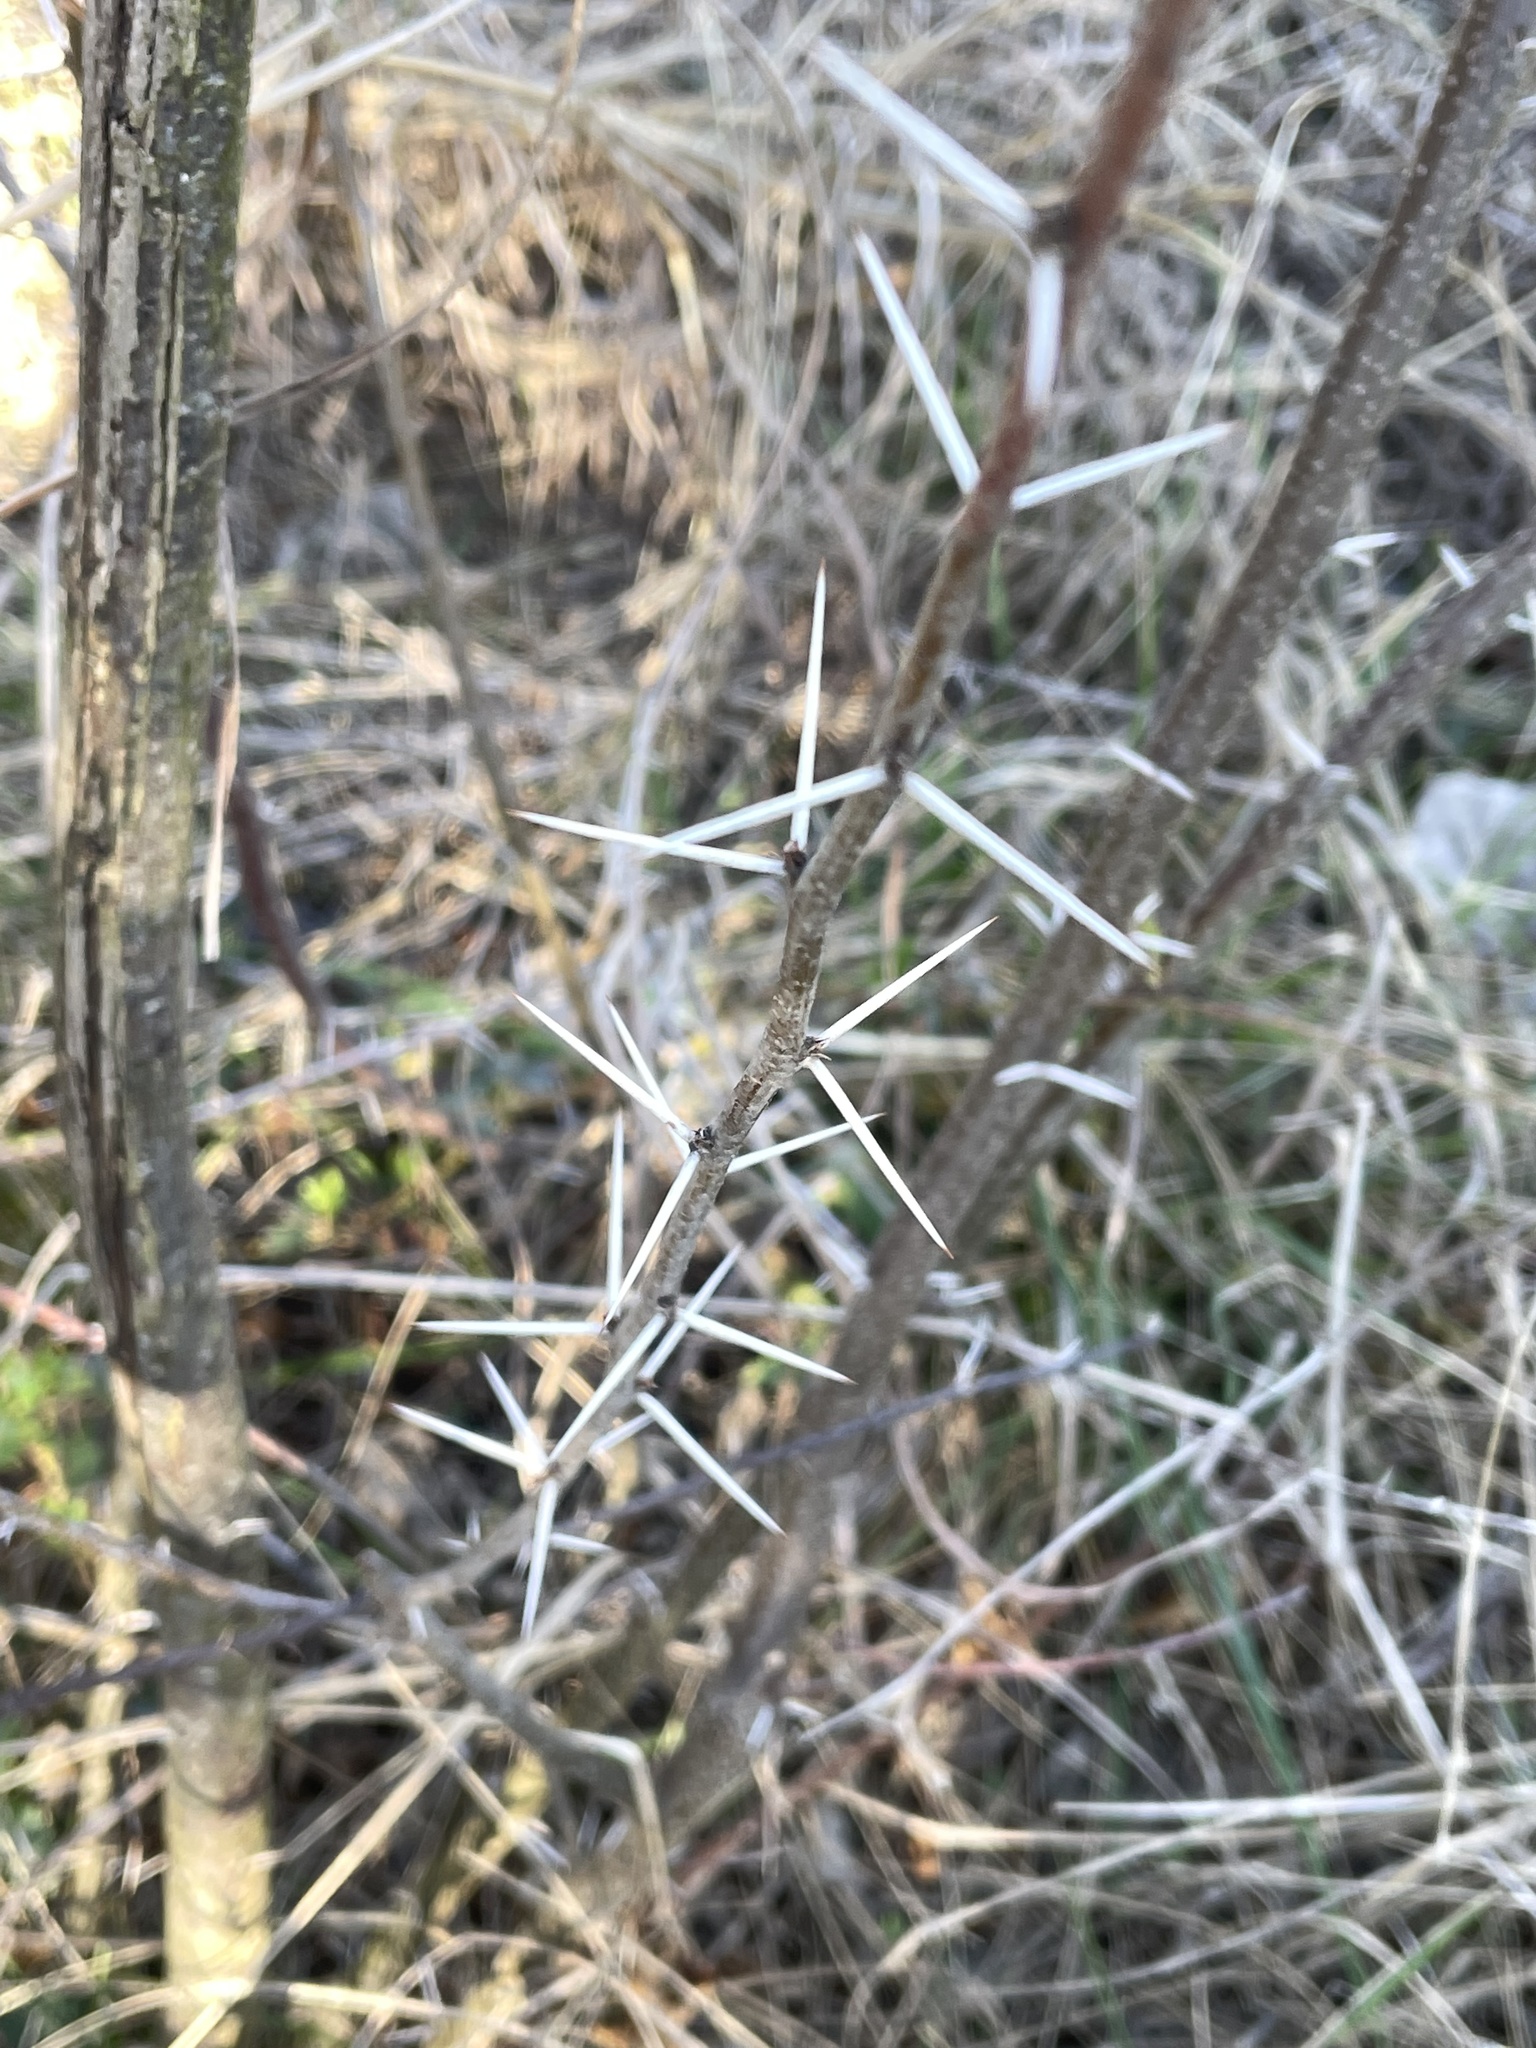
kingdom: Plantae
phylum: Tracheophyta
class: Magnoliopsida
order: Fabales
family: Fabaceae
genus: Vachellia
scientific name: Vachellia farnesiana
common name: Sweet acacia
